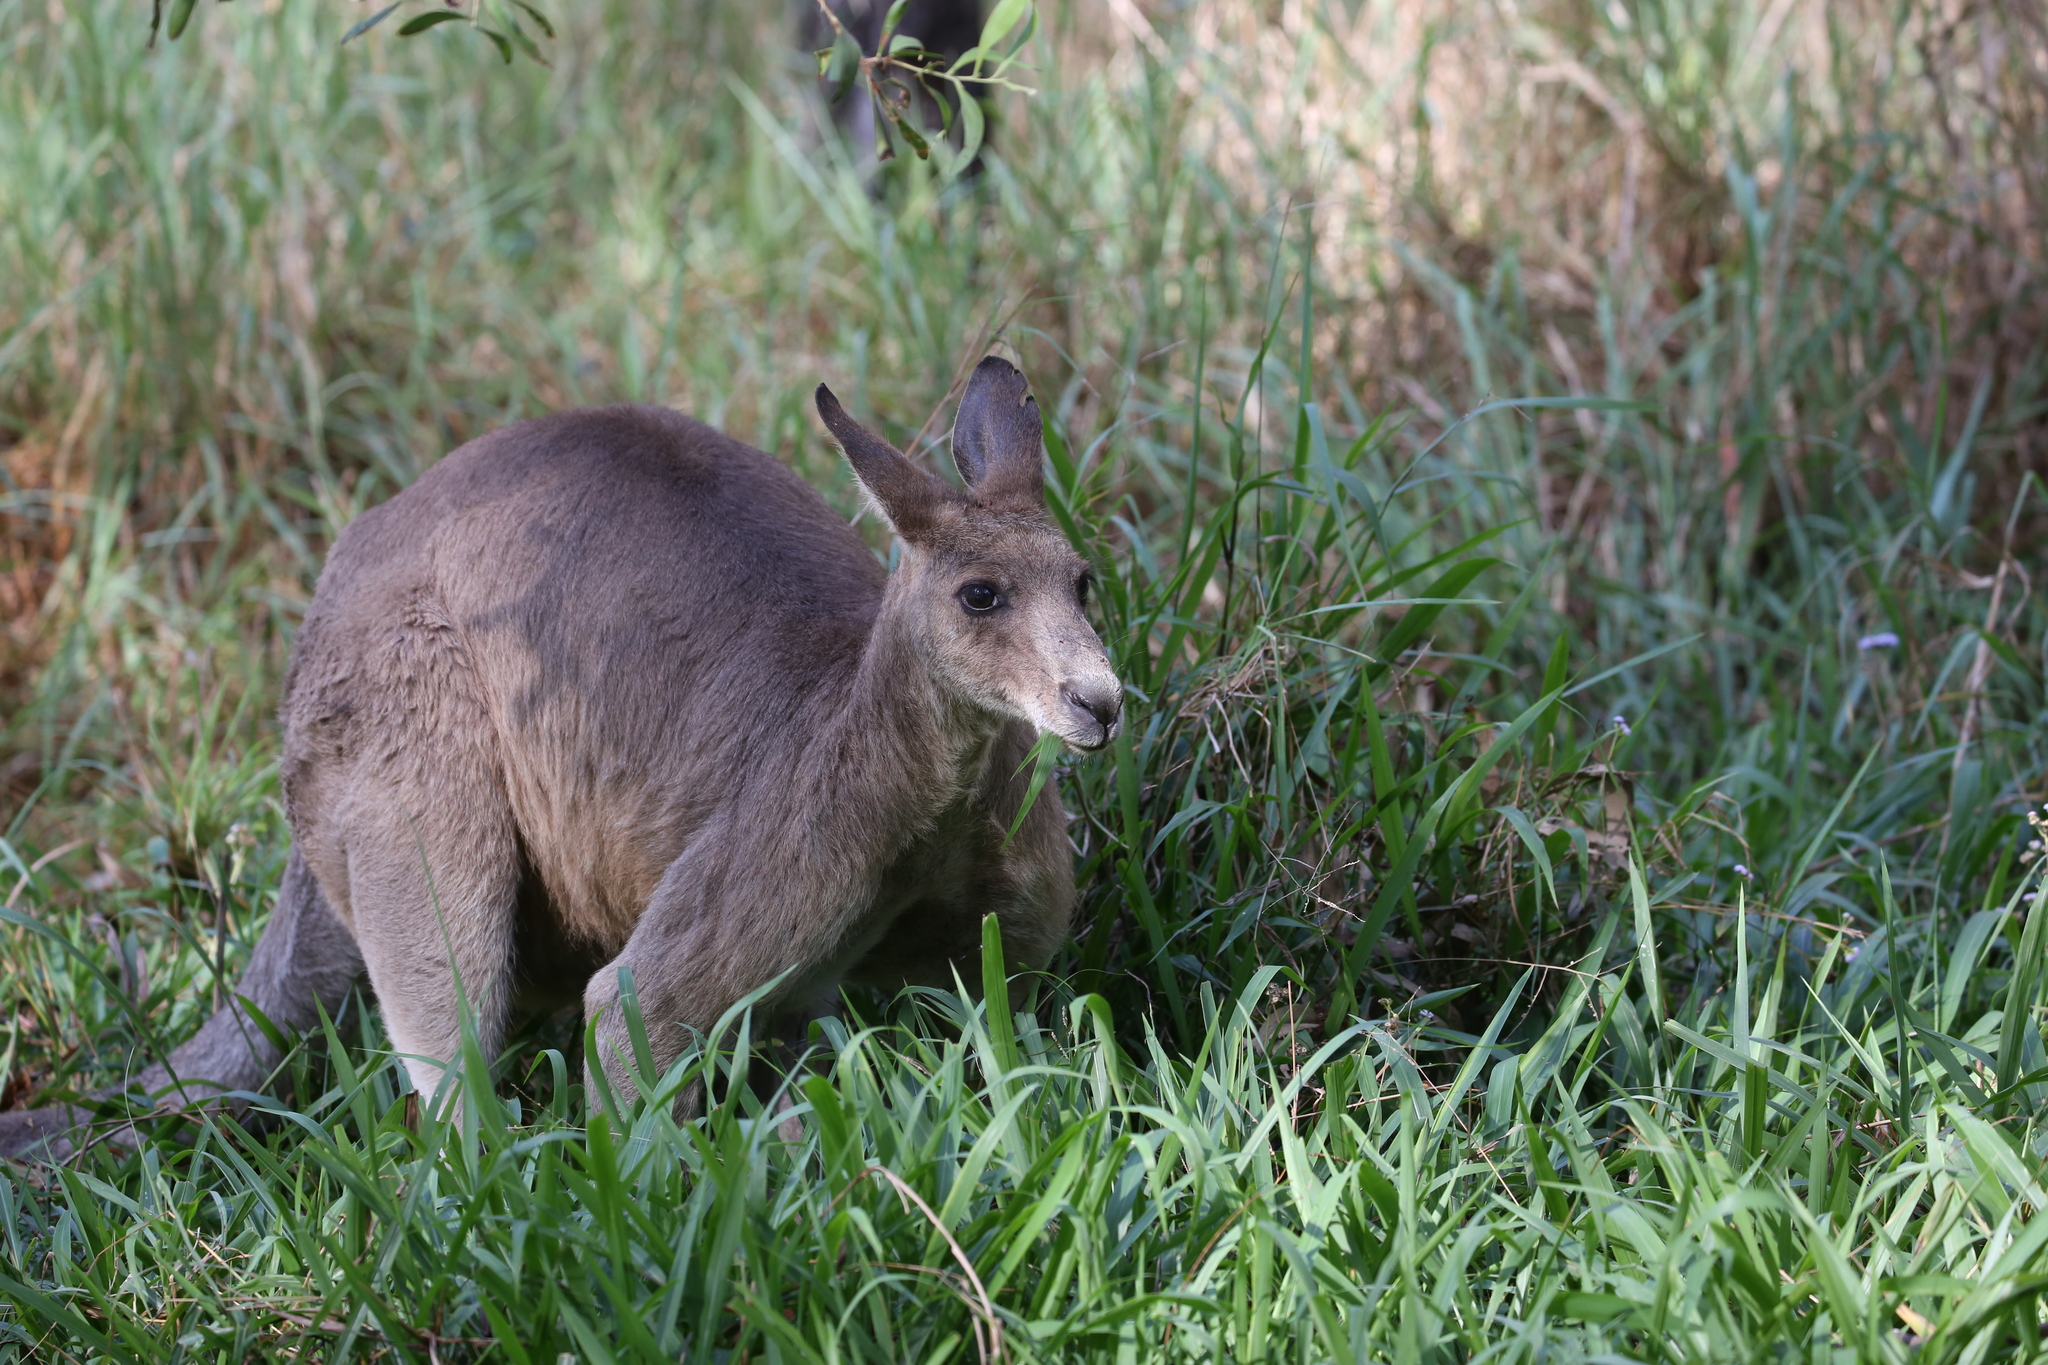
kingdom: Animalia
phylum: Chordata
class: Mammalia
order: Diprotodontia
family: Macropodidae
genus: Macropus
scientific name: Macropus giganteus
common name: Eastern grey kangaroo
